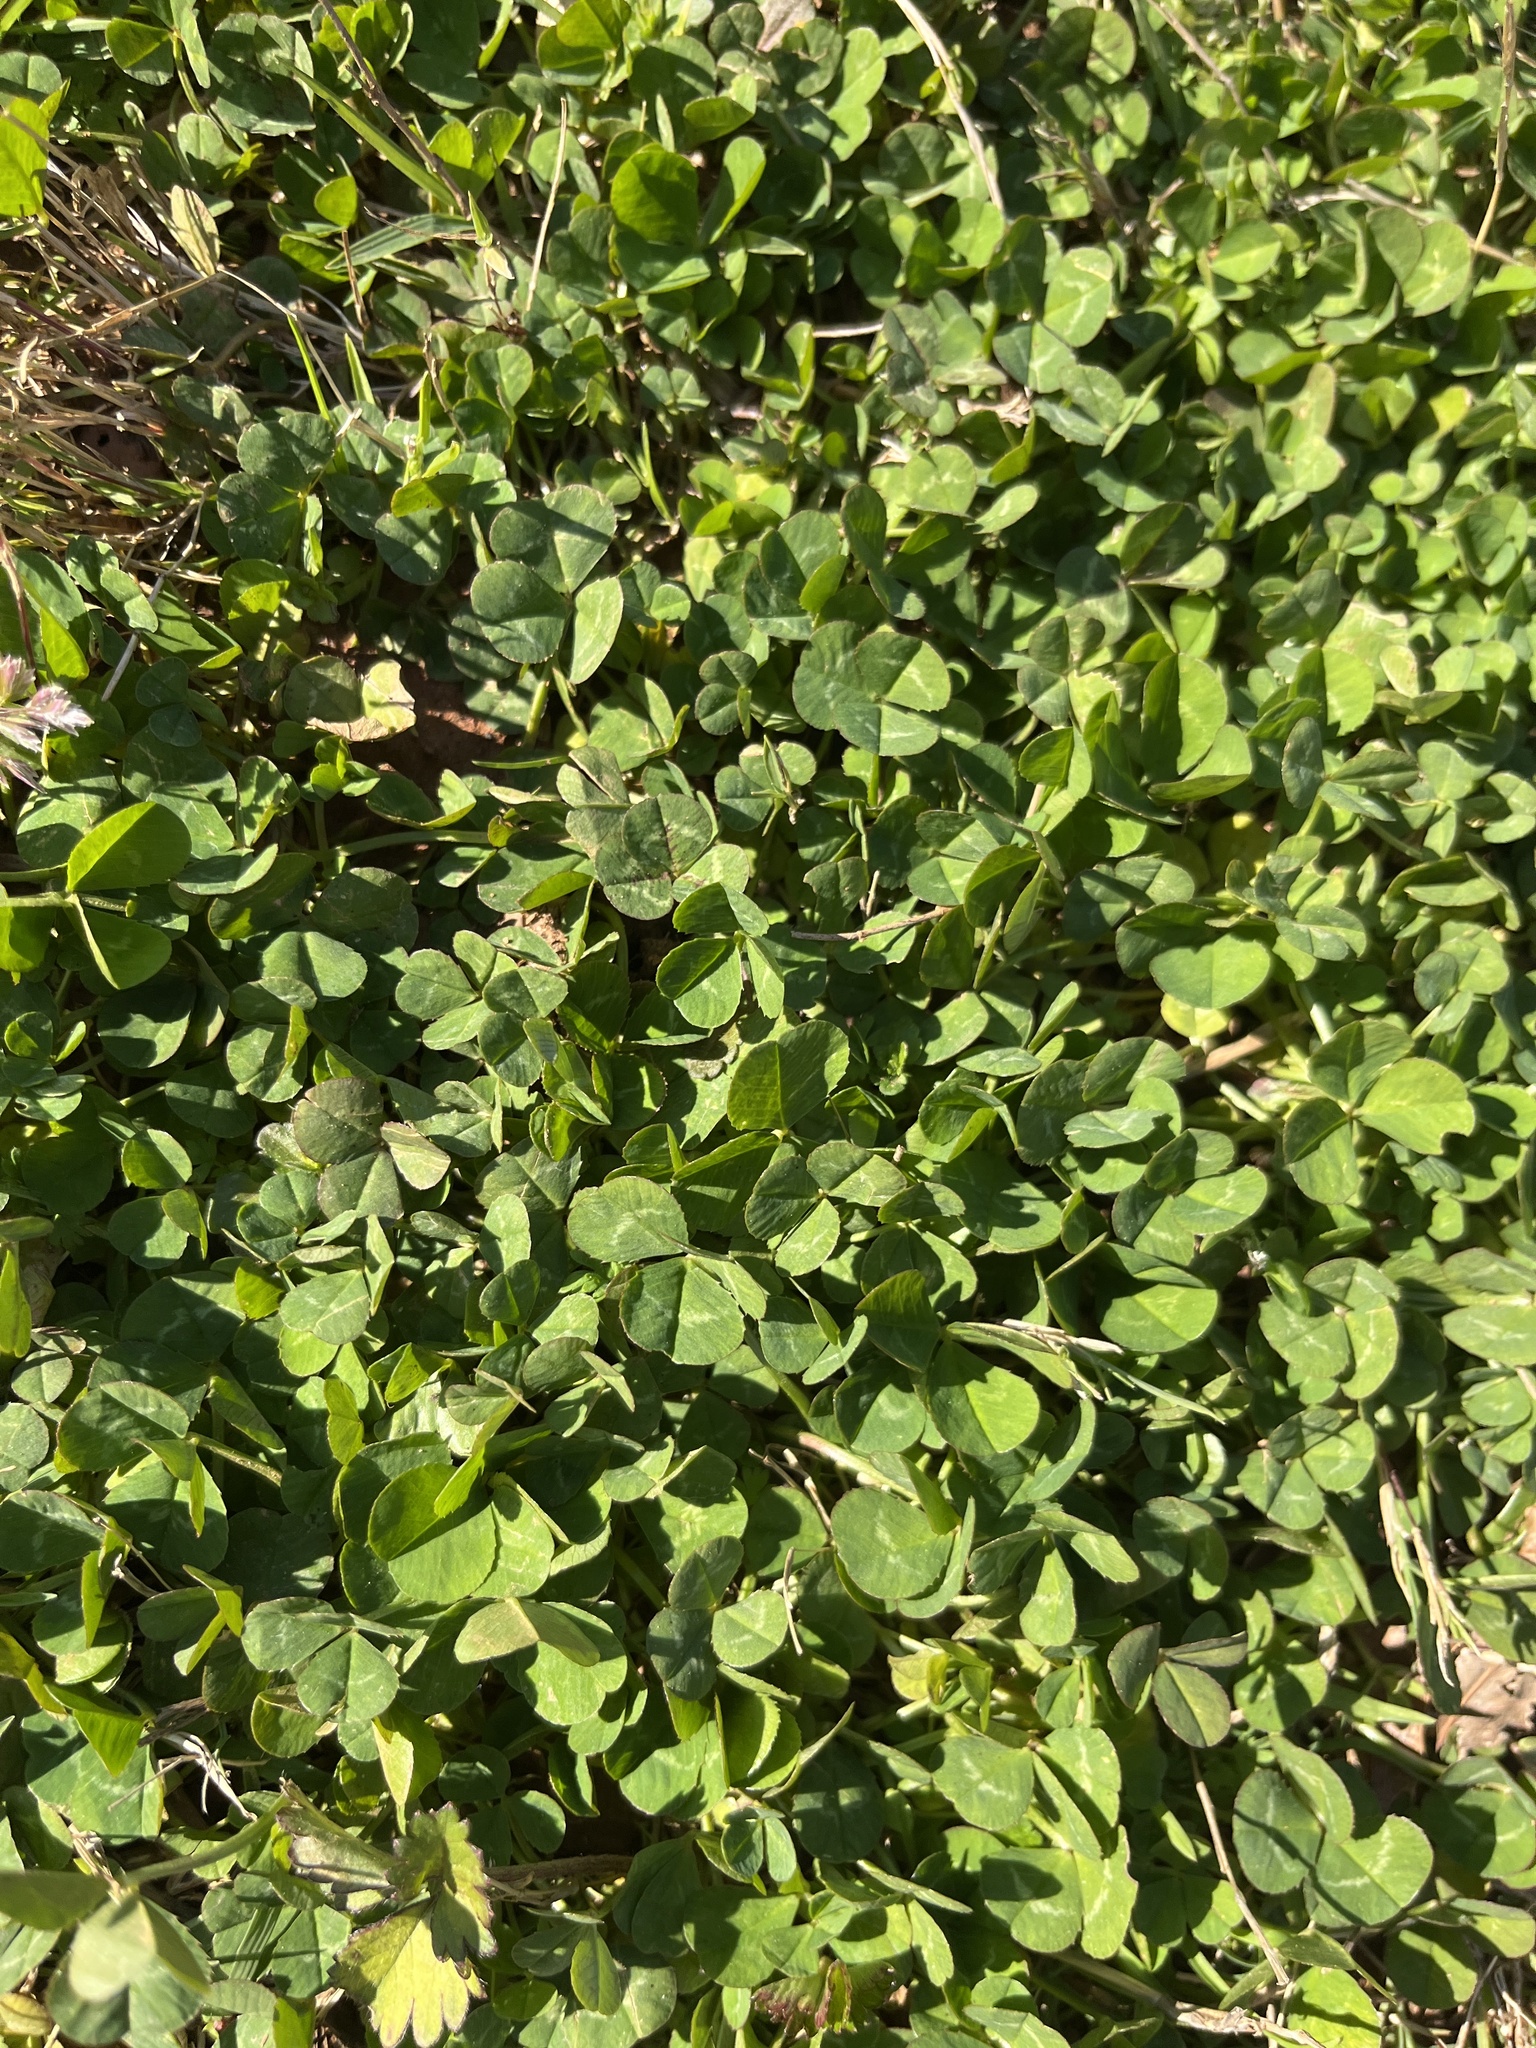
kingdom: Plantae
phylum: Tracheophyta
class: Magnoliopsida
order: Fabales
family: Fabaceae
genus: Trifolium
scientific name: Trifolium repens
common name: White clover
